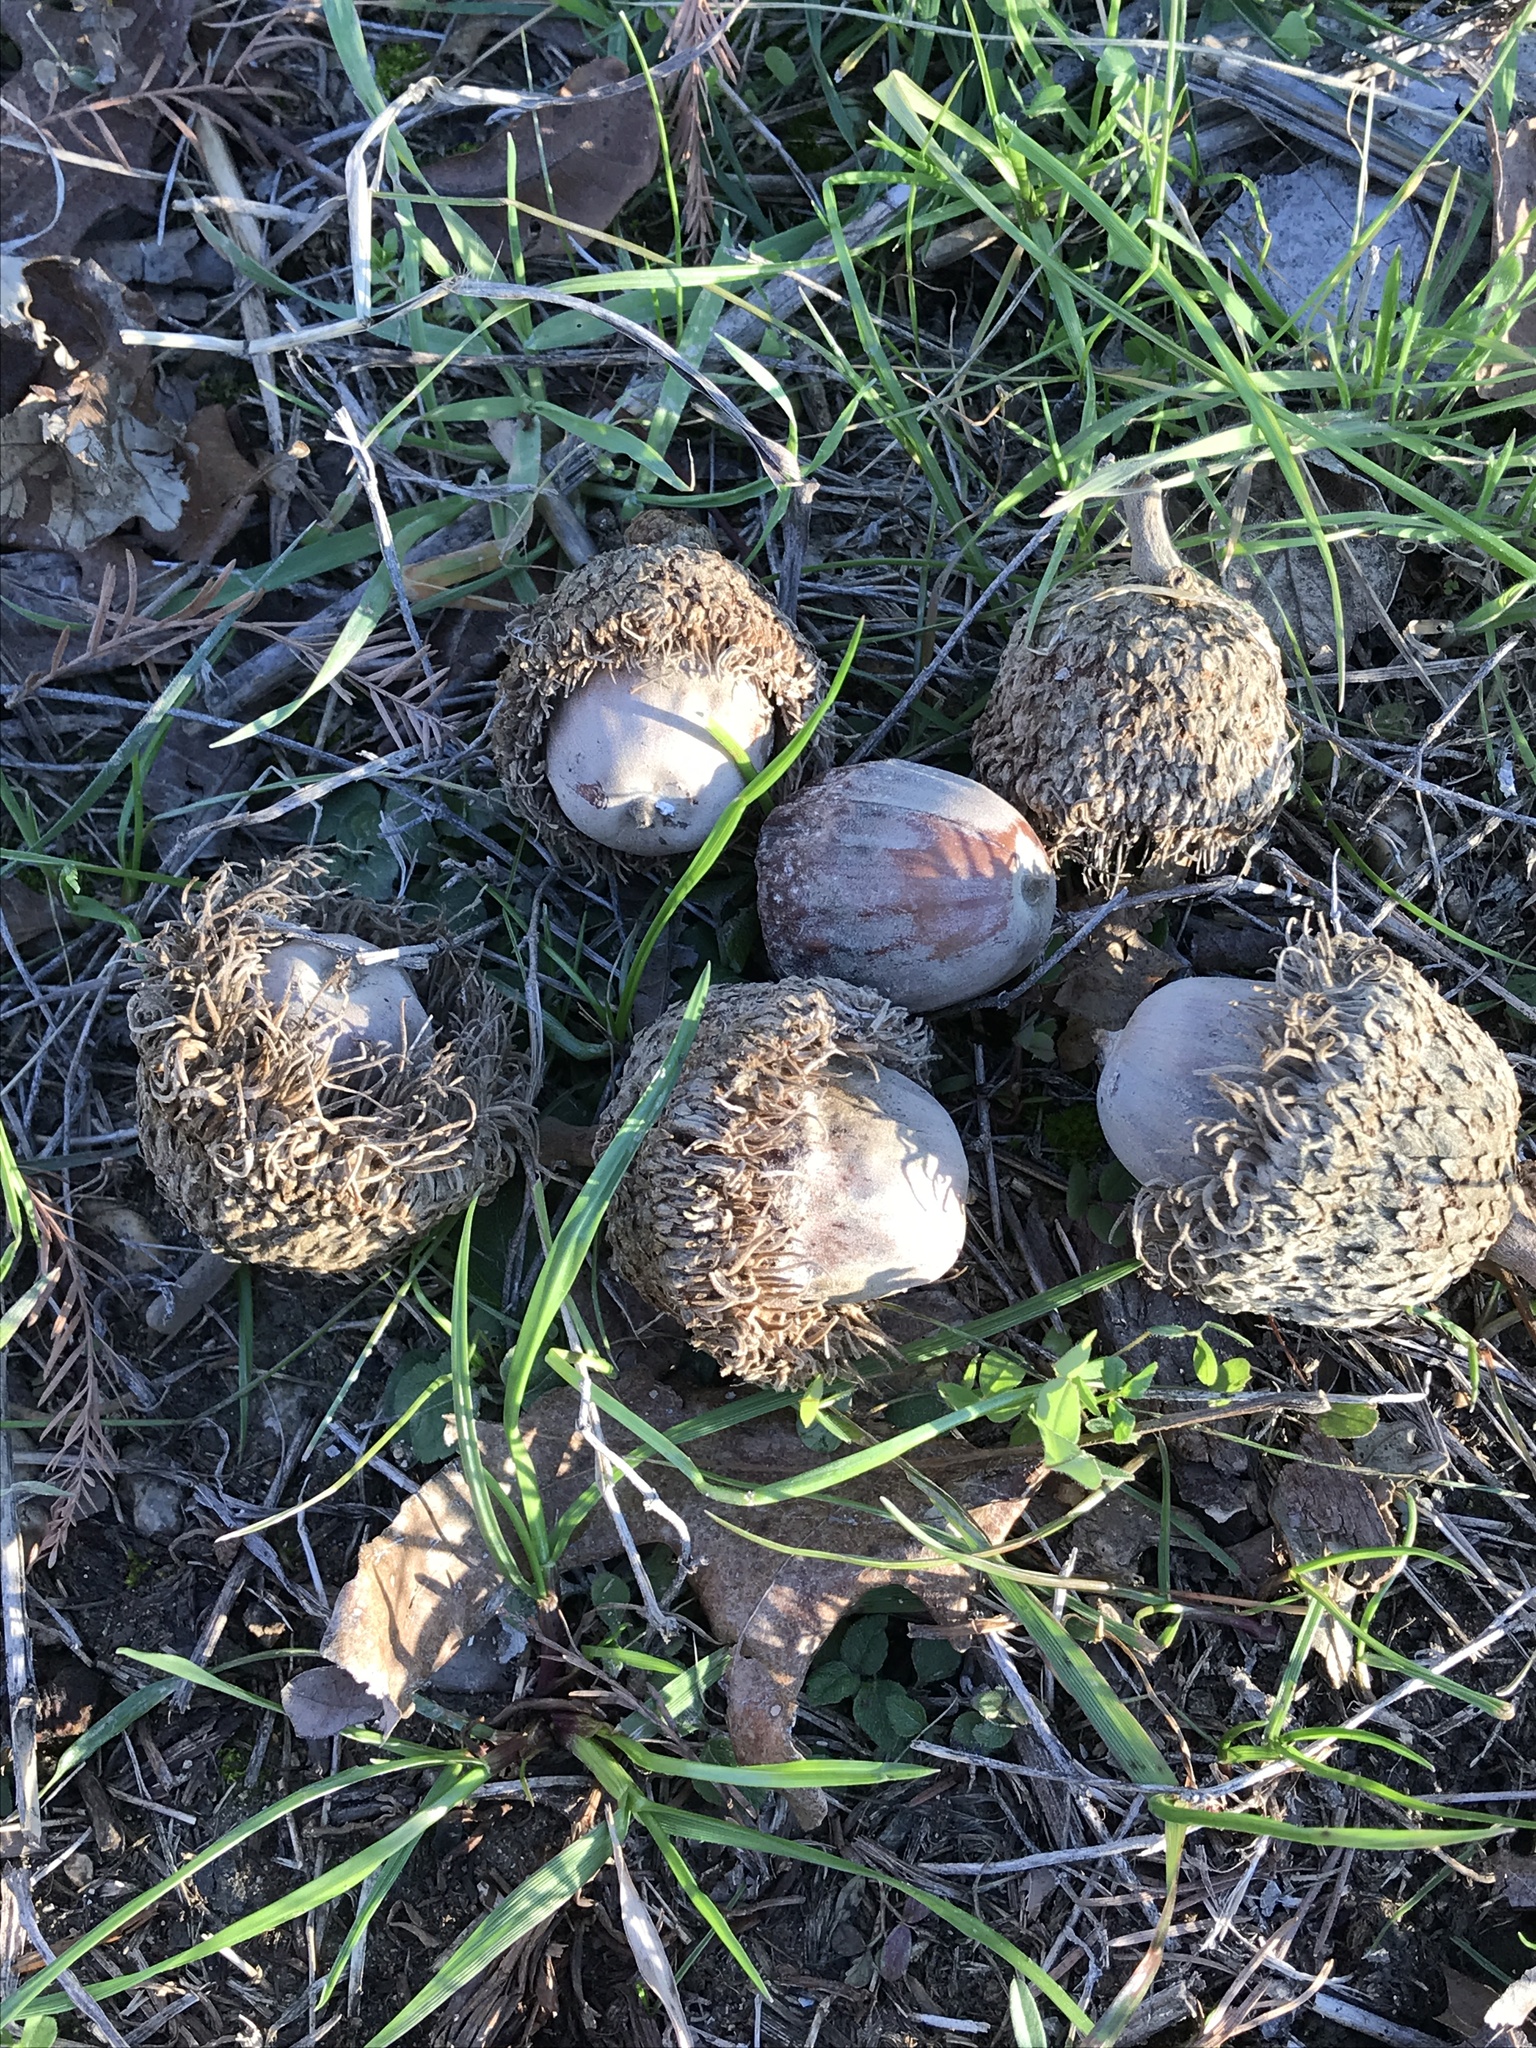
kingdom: Plantae
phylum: Tracheophyta
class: Magnoliopsida
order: Fagales
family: Fagaceae
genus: Quercus
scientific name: Quercus macrocarpa
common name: Bur oak
